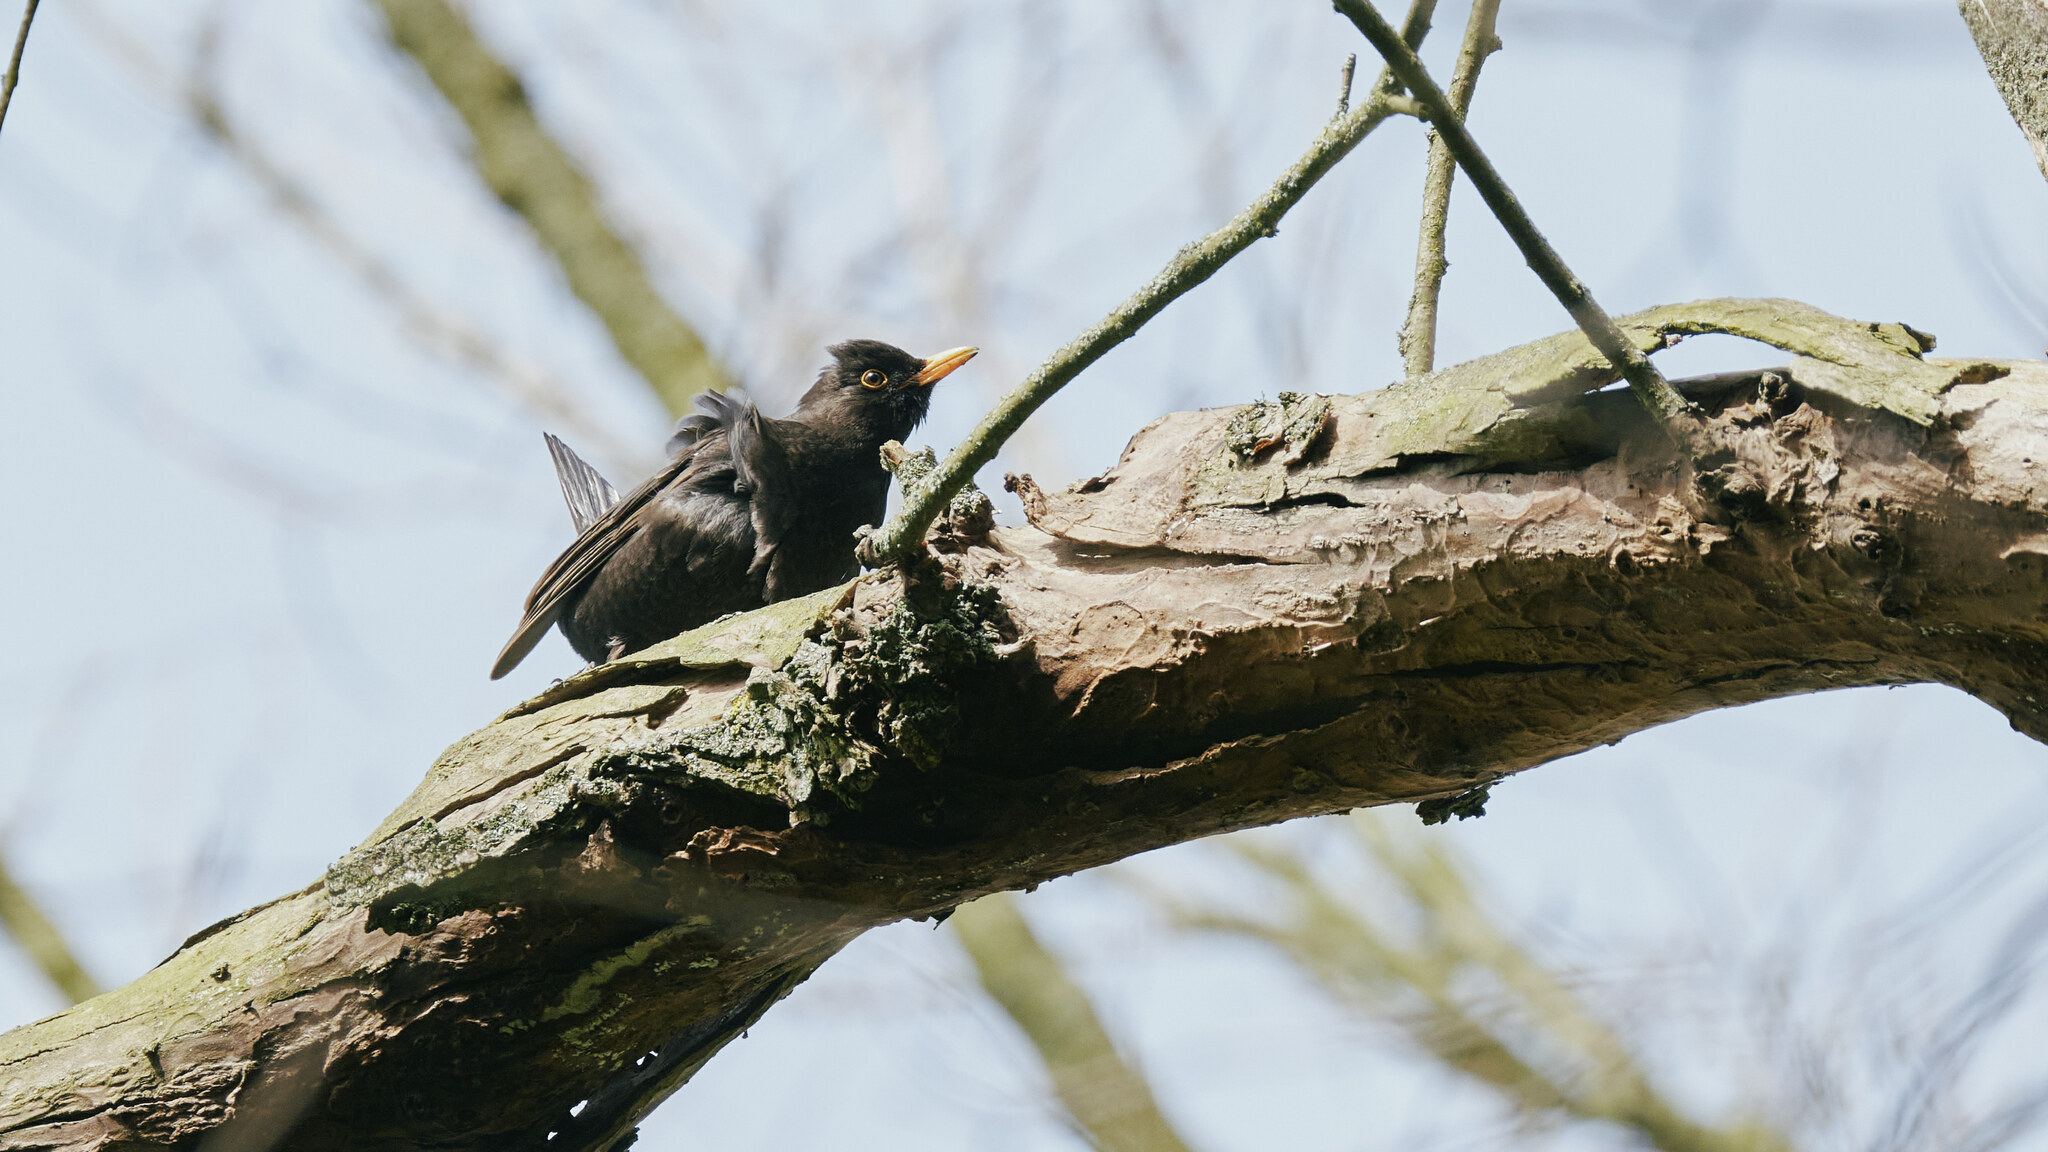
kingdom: Animalia
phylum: Chordata
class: Aves
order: Passeriformes
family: Turdidae
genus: Turdus
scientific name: Turdus merula
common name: Common blackbird
